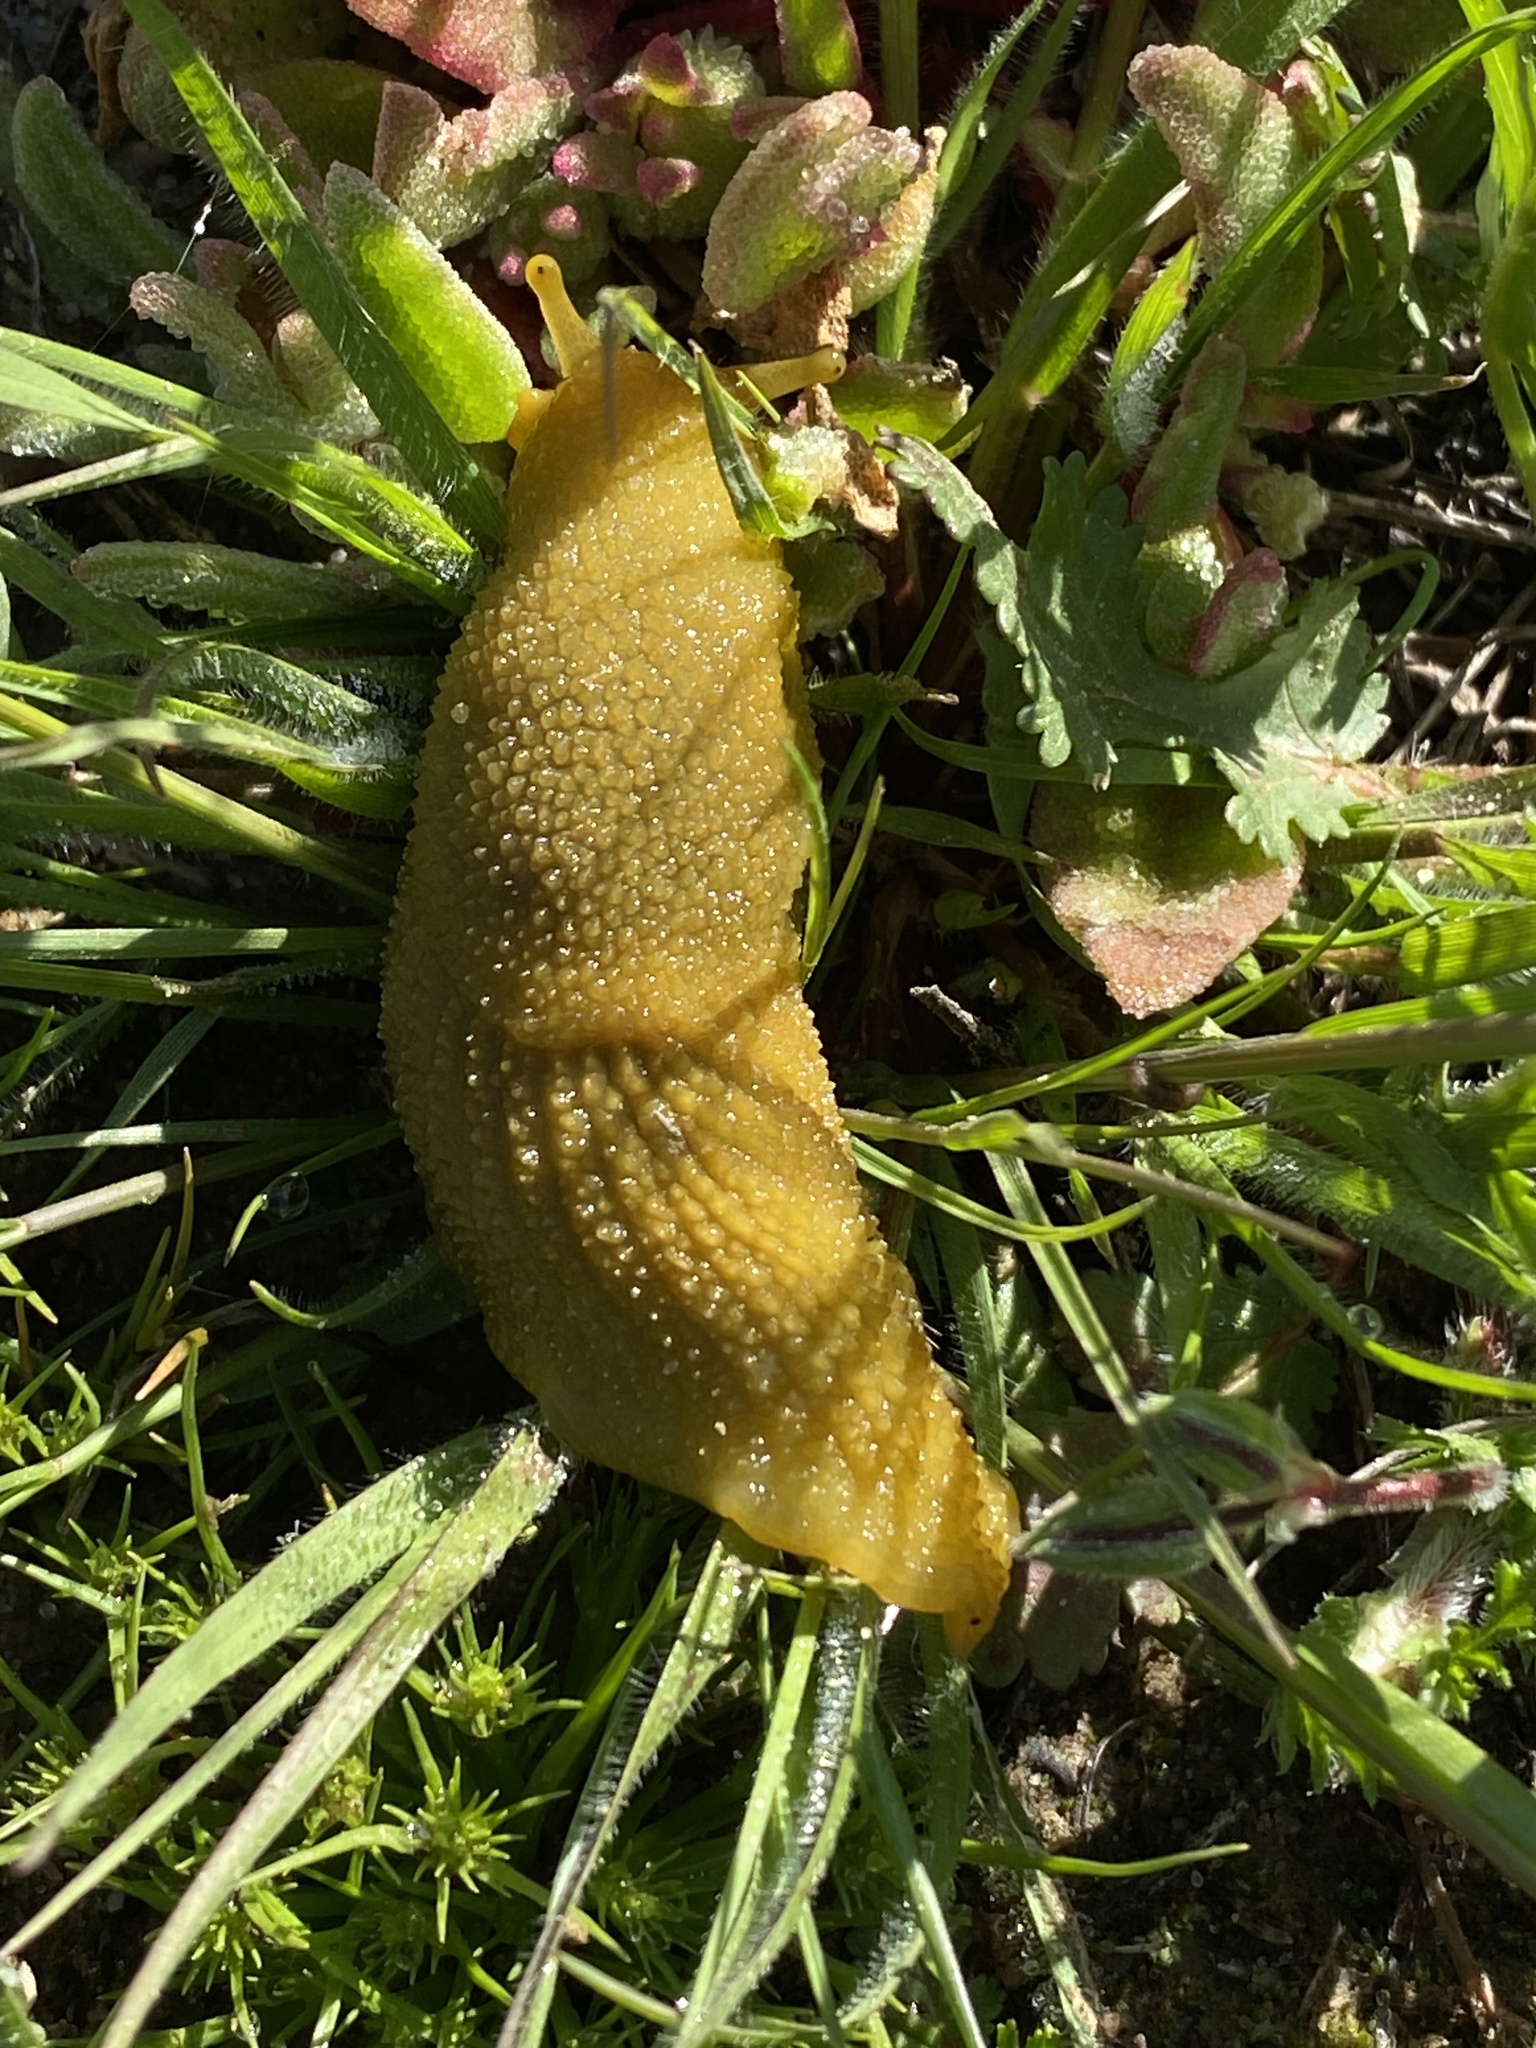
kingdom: Animalia
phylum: Mollusca
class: Gastropoda
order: Stylommatophora
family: Oopeltidae
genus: Oopelta
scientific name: Oopelta granulosa
